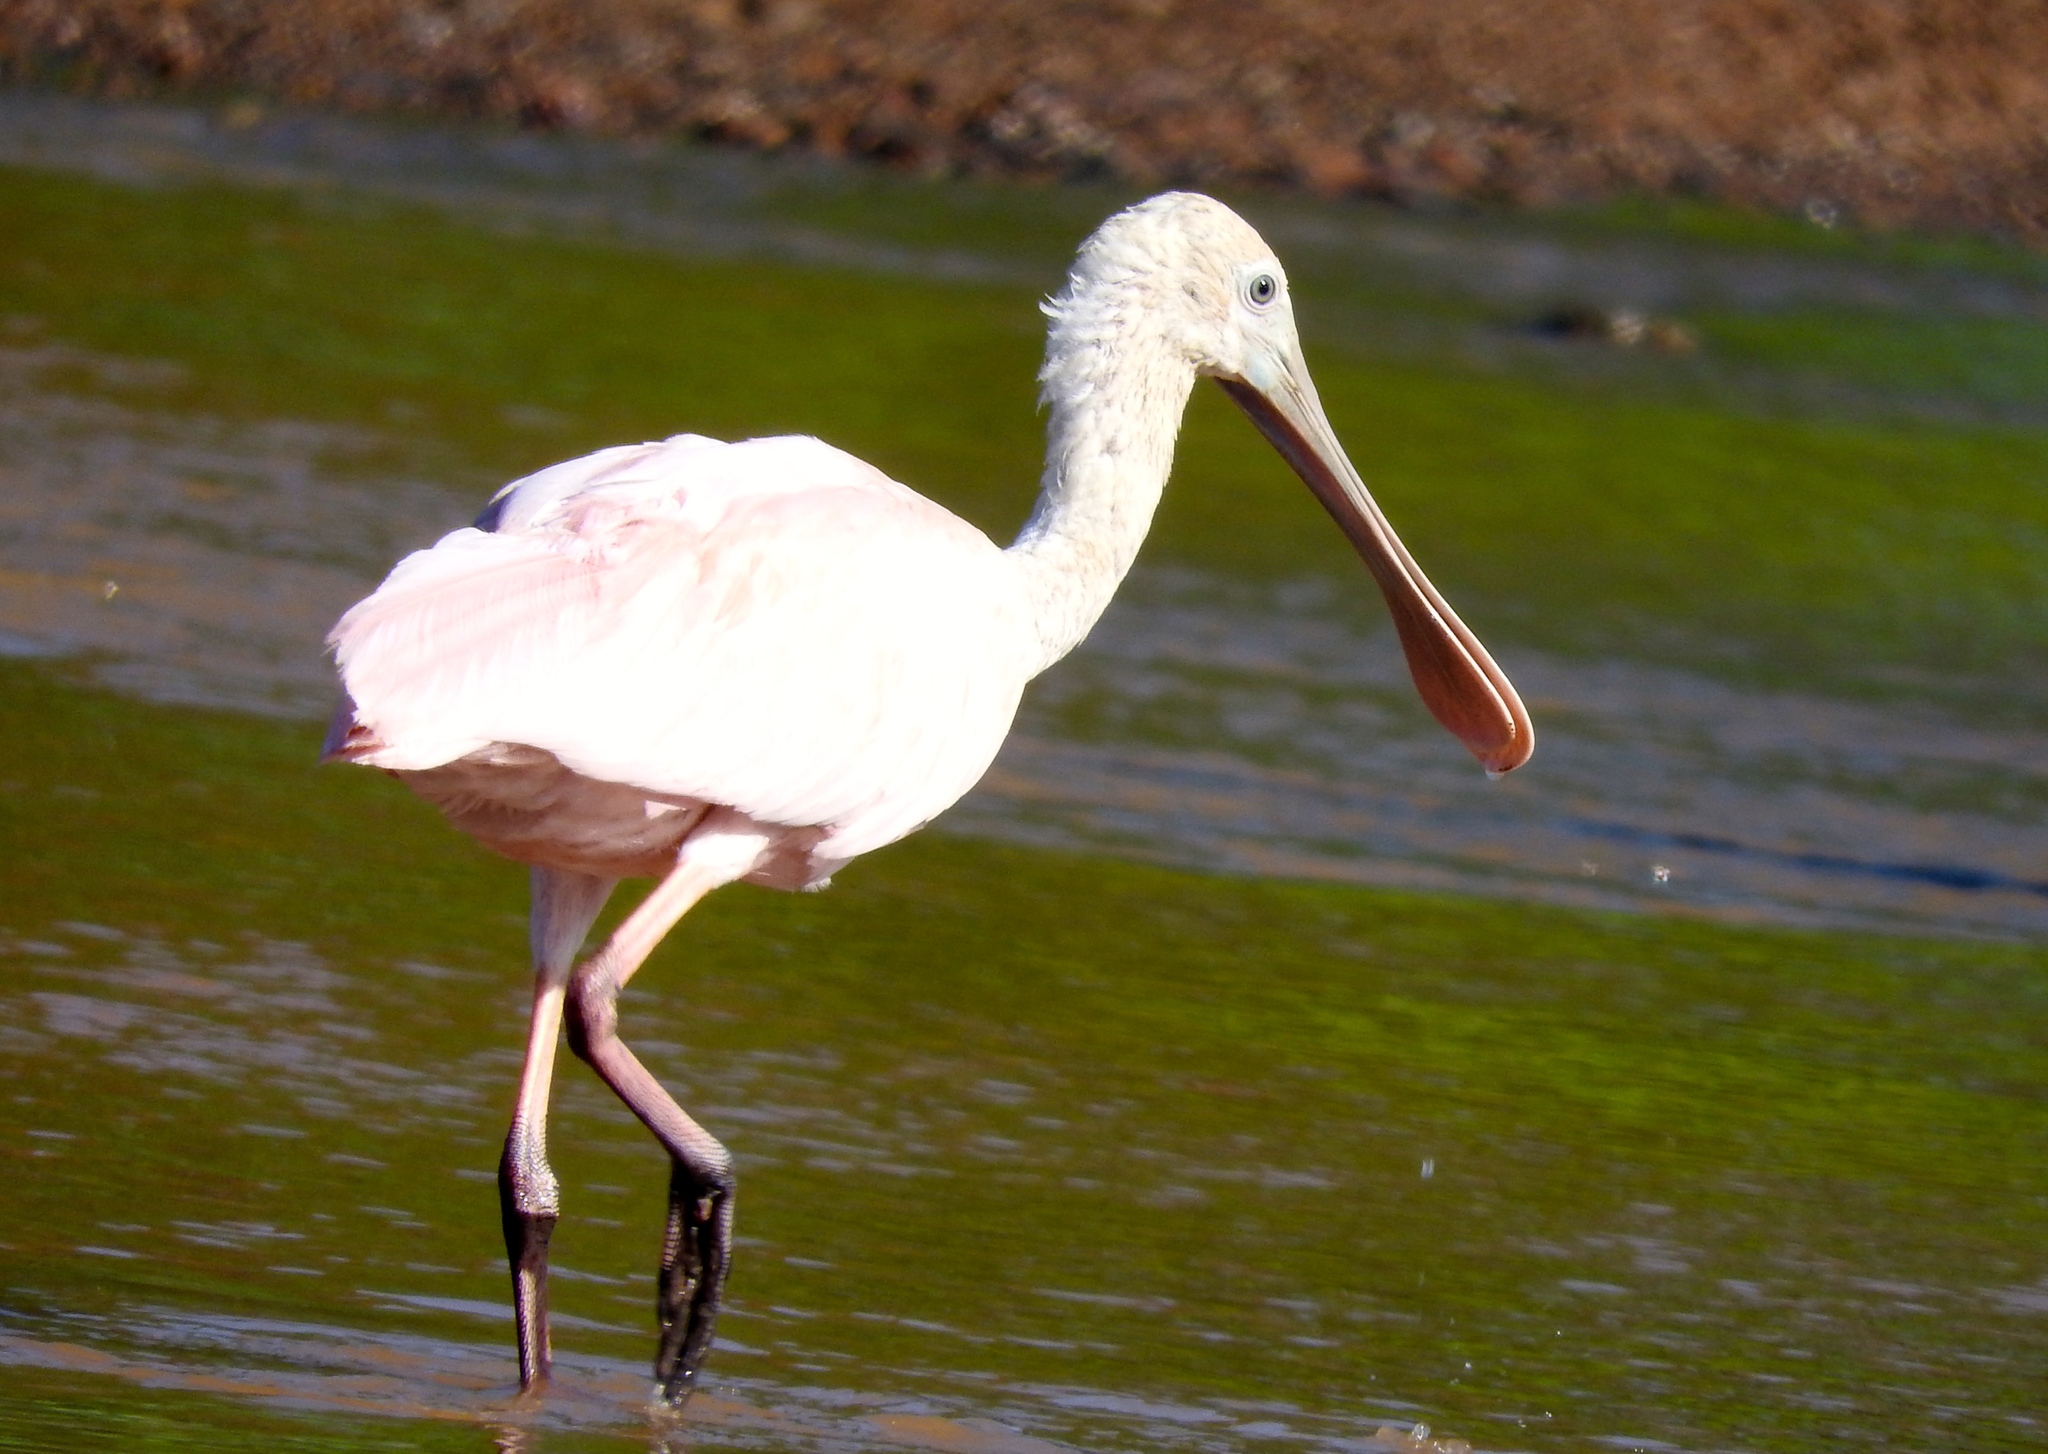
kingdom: Animalia
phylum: Chordata
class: Aves
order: Pelecaniformes
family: Threskiornithidae
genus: Platalea
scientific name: Platalea ajaja
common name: Roseate spoonbill
